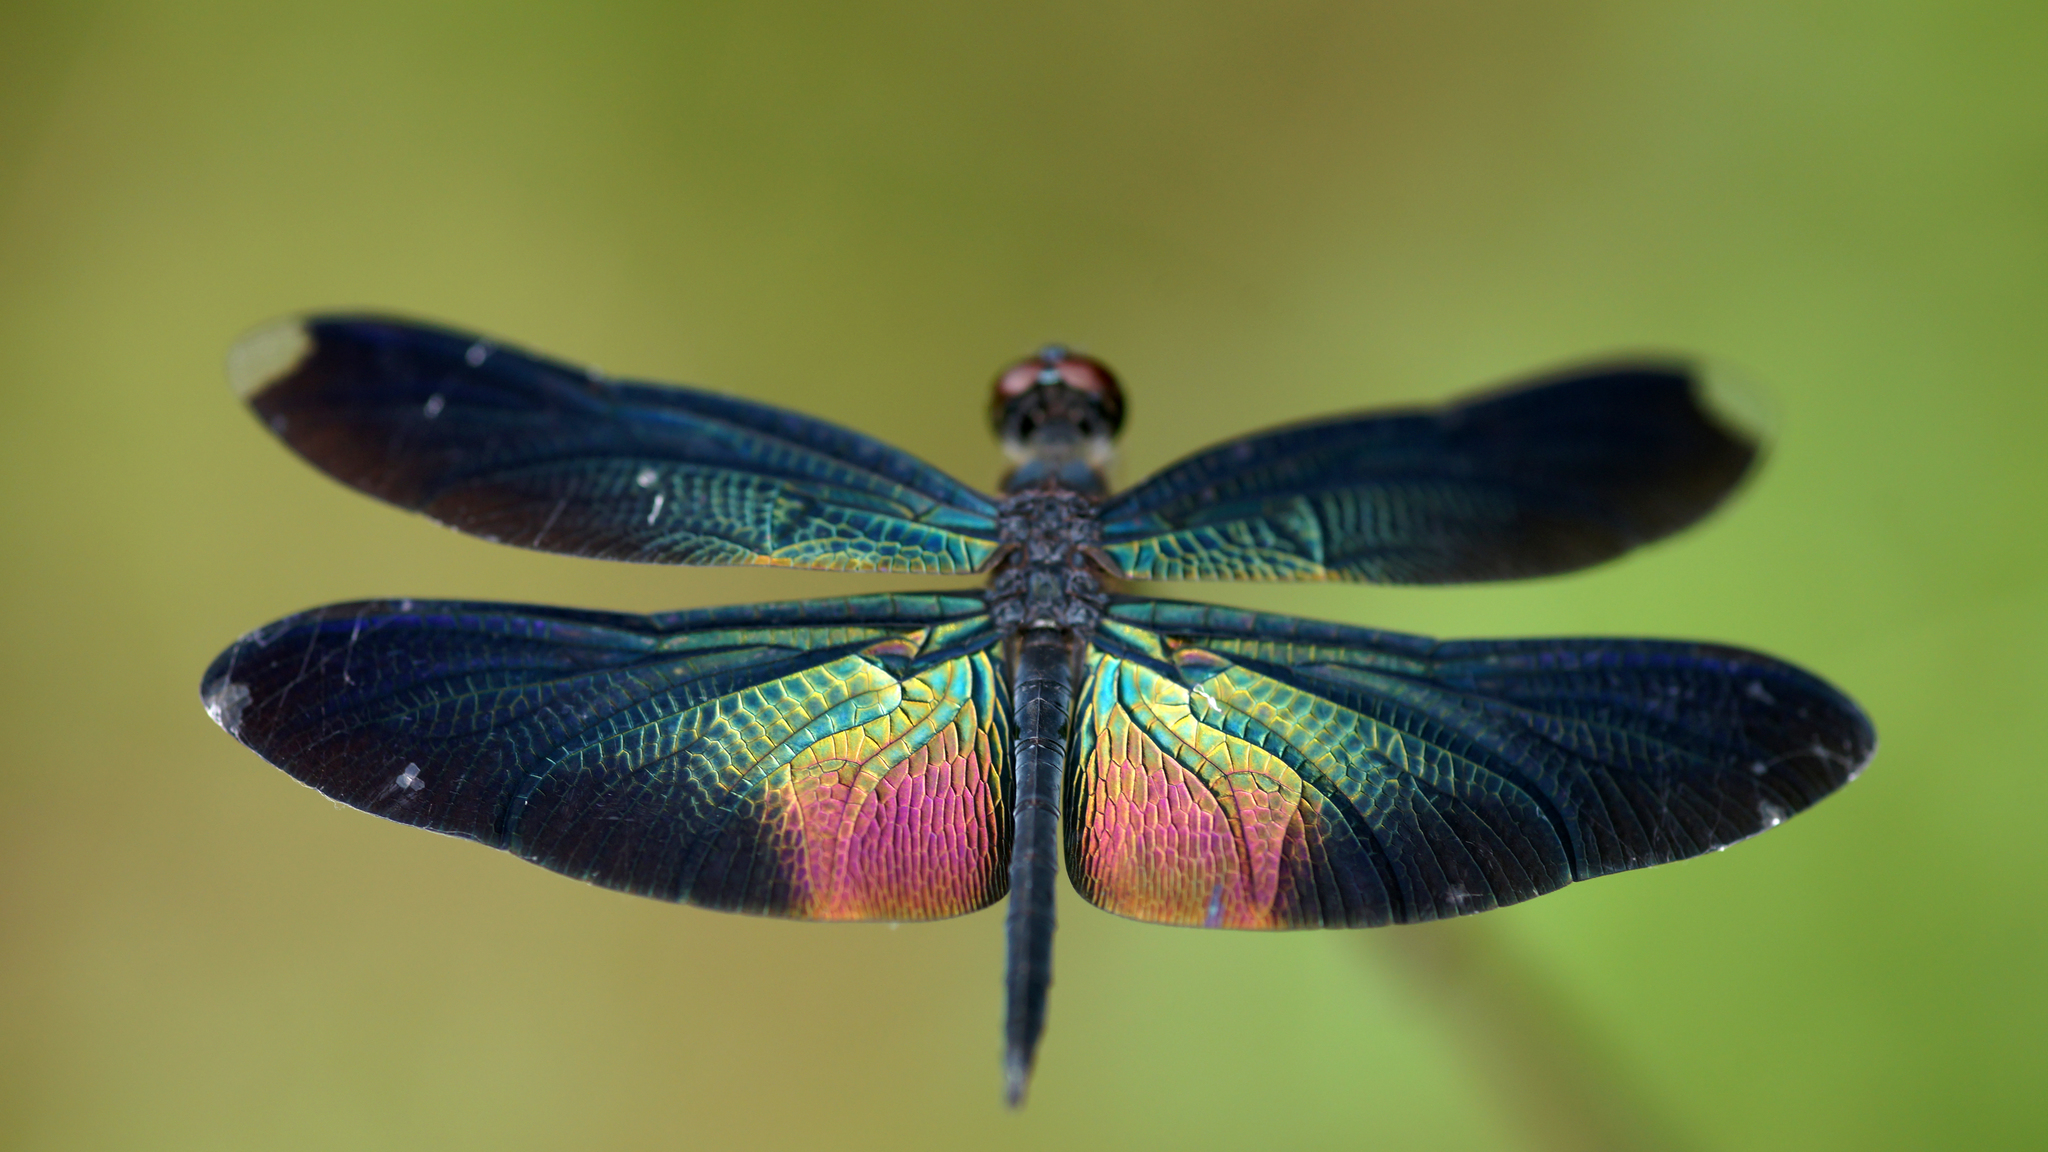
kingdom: Animalia
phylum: Arthropoda
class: Insecta
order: Odonata
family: Libellulidae
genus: Rhyothemis
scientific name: Rhyothemis plutonia
